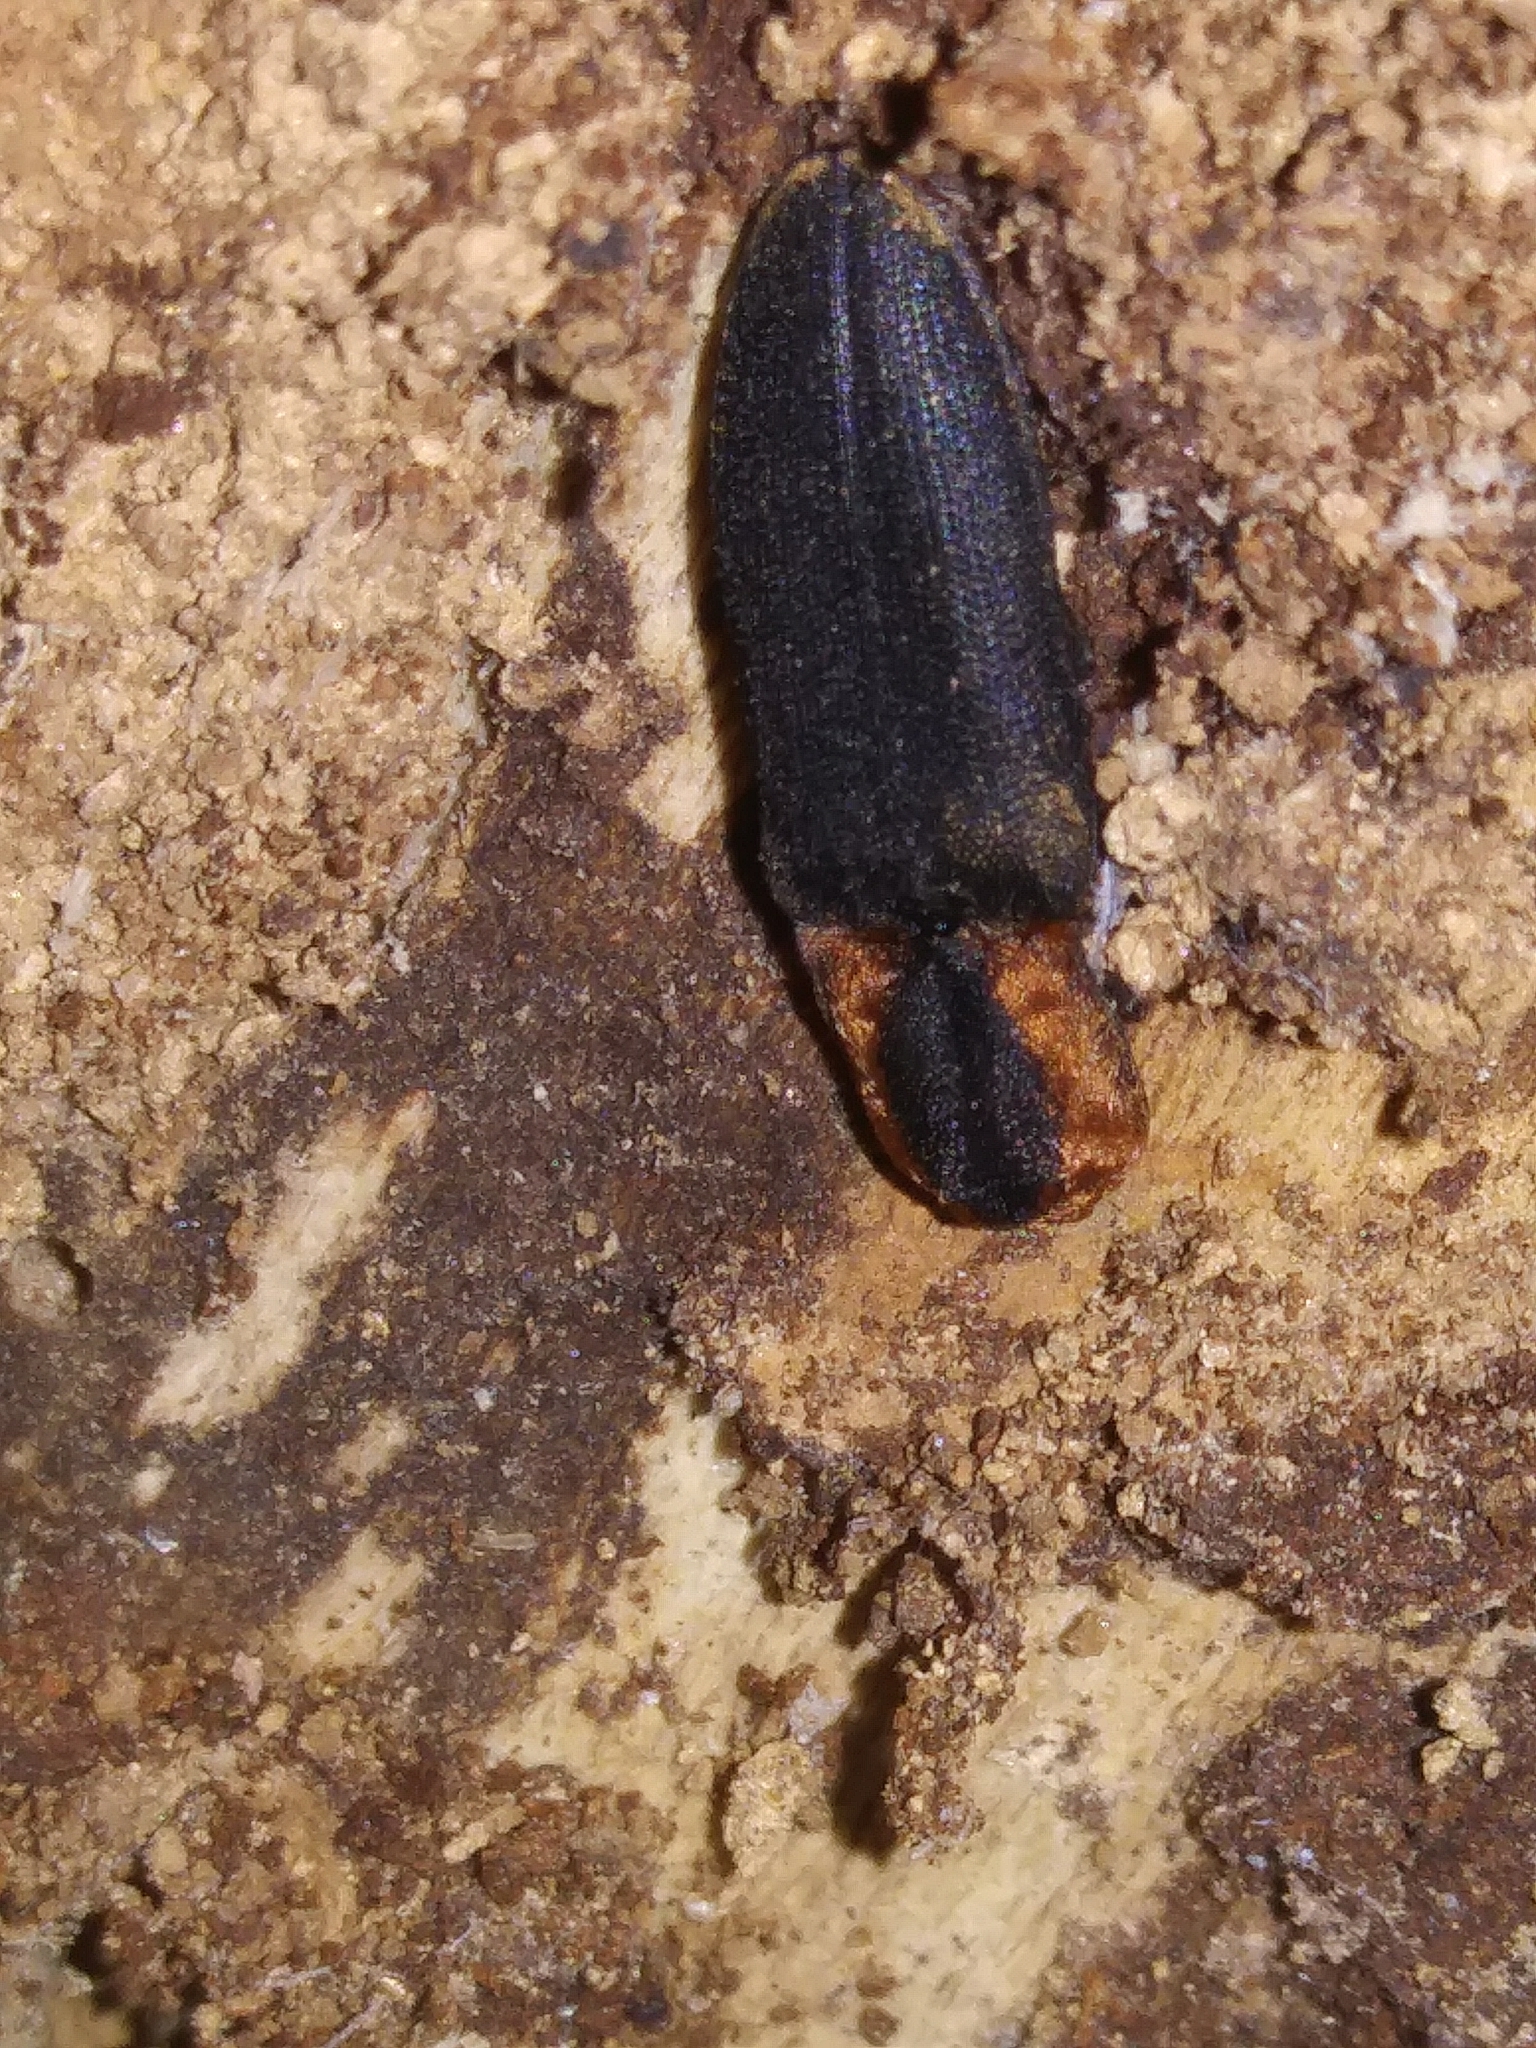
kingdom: Animalia
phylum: Arthropoda
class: Insecta
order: Coleoptera
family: Elateridae
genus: Lacon
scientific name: Lacon discoideus
